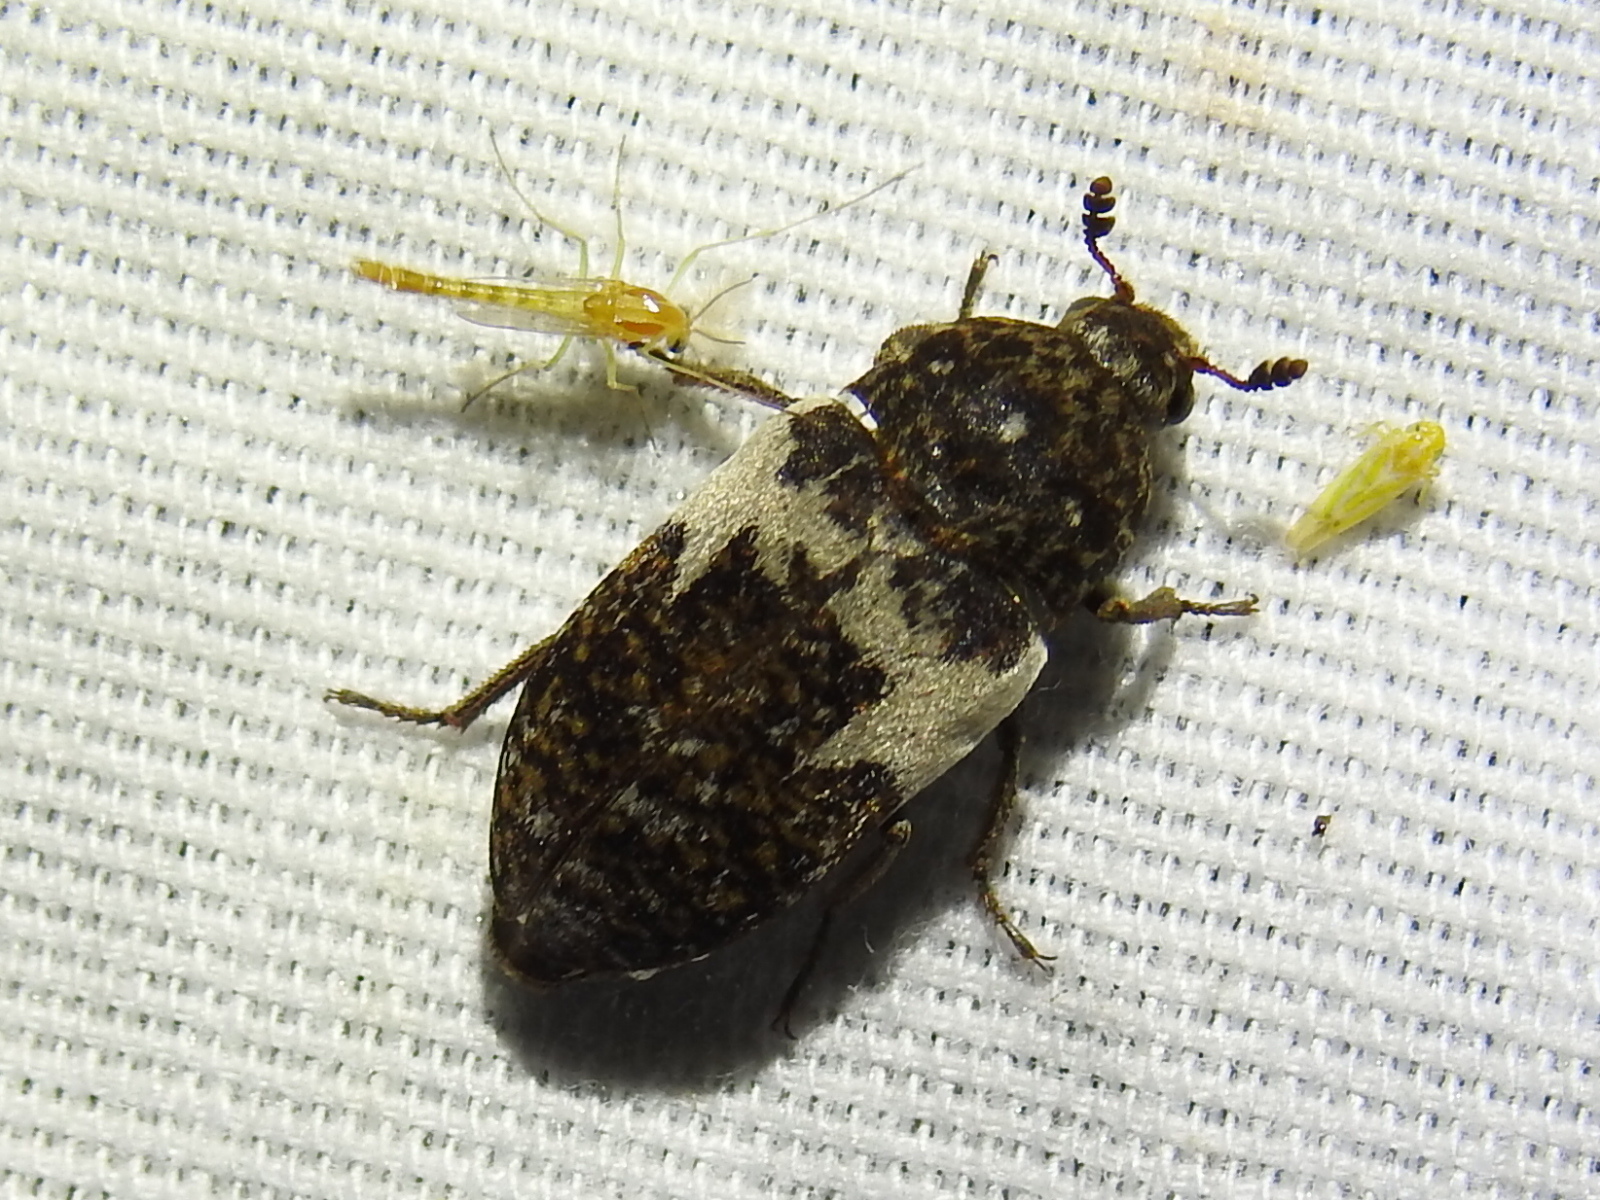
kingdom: Animalia
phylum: Arthropoda
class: Insecta
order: Coleoptera
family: Dermestidae
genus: Dermestes
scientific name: Dermestes marmoratus
